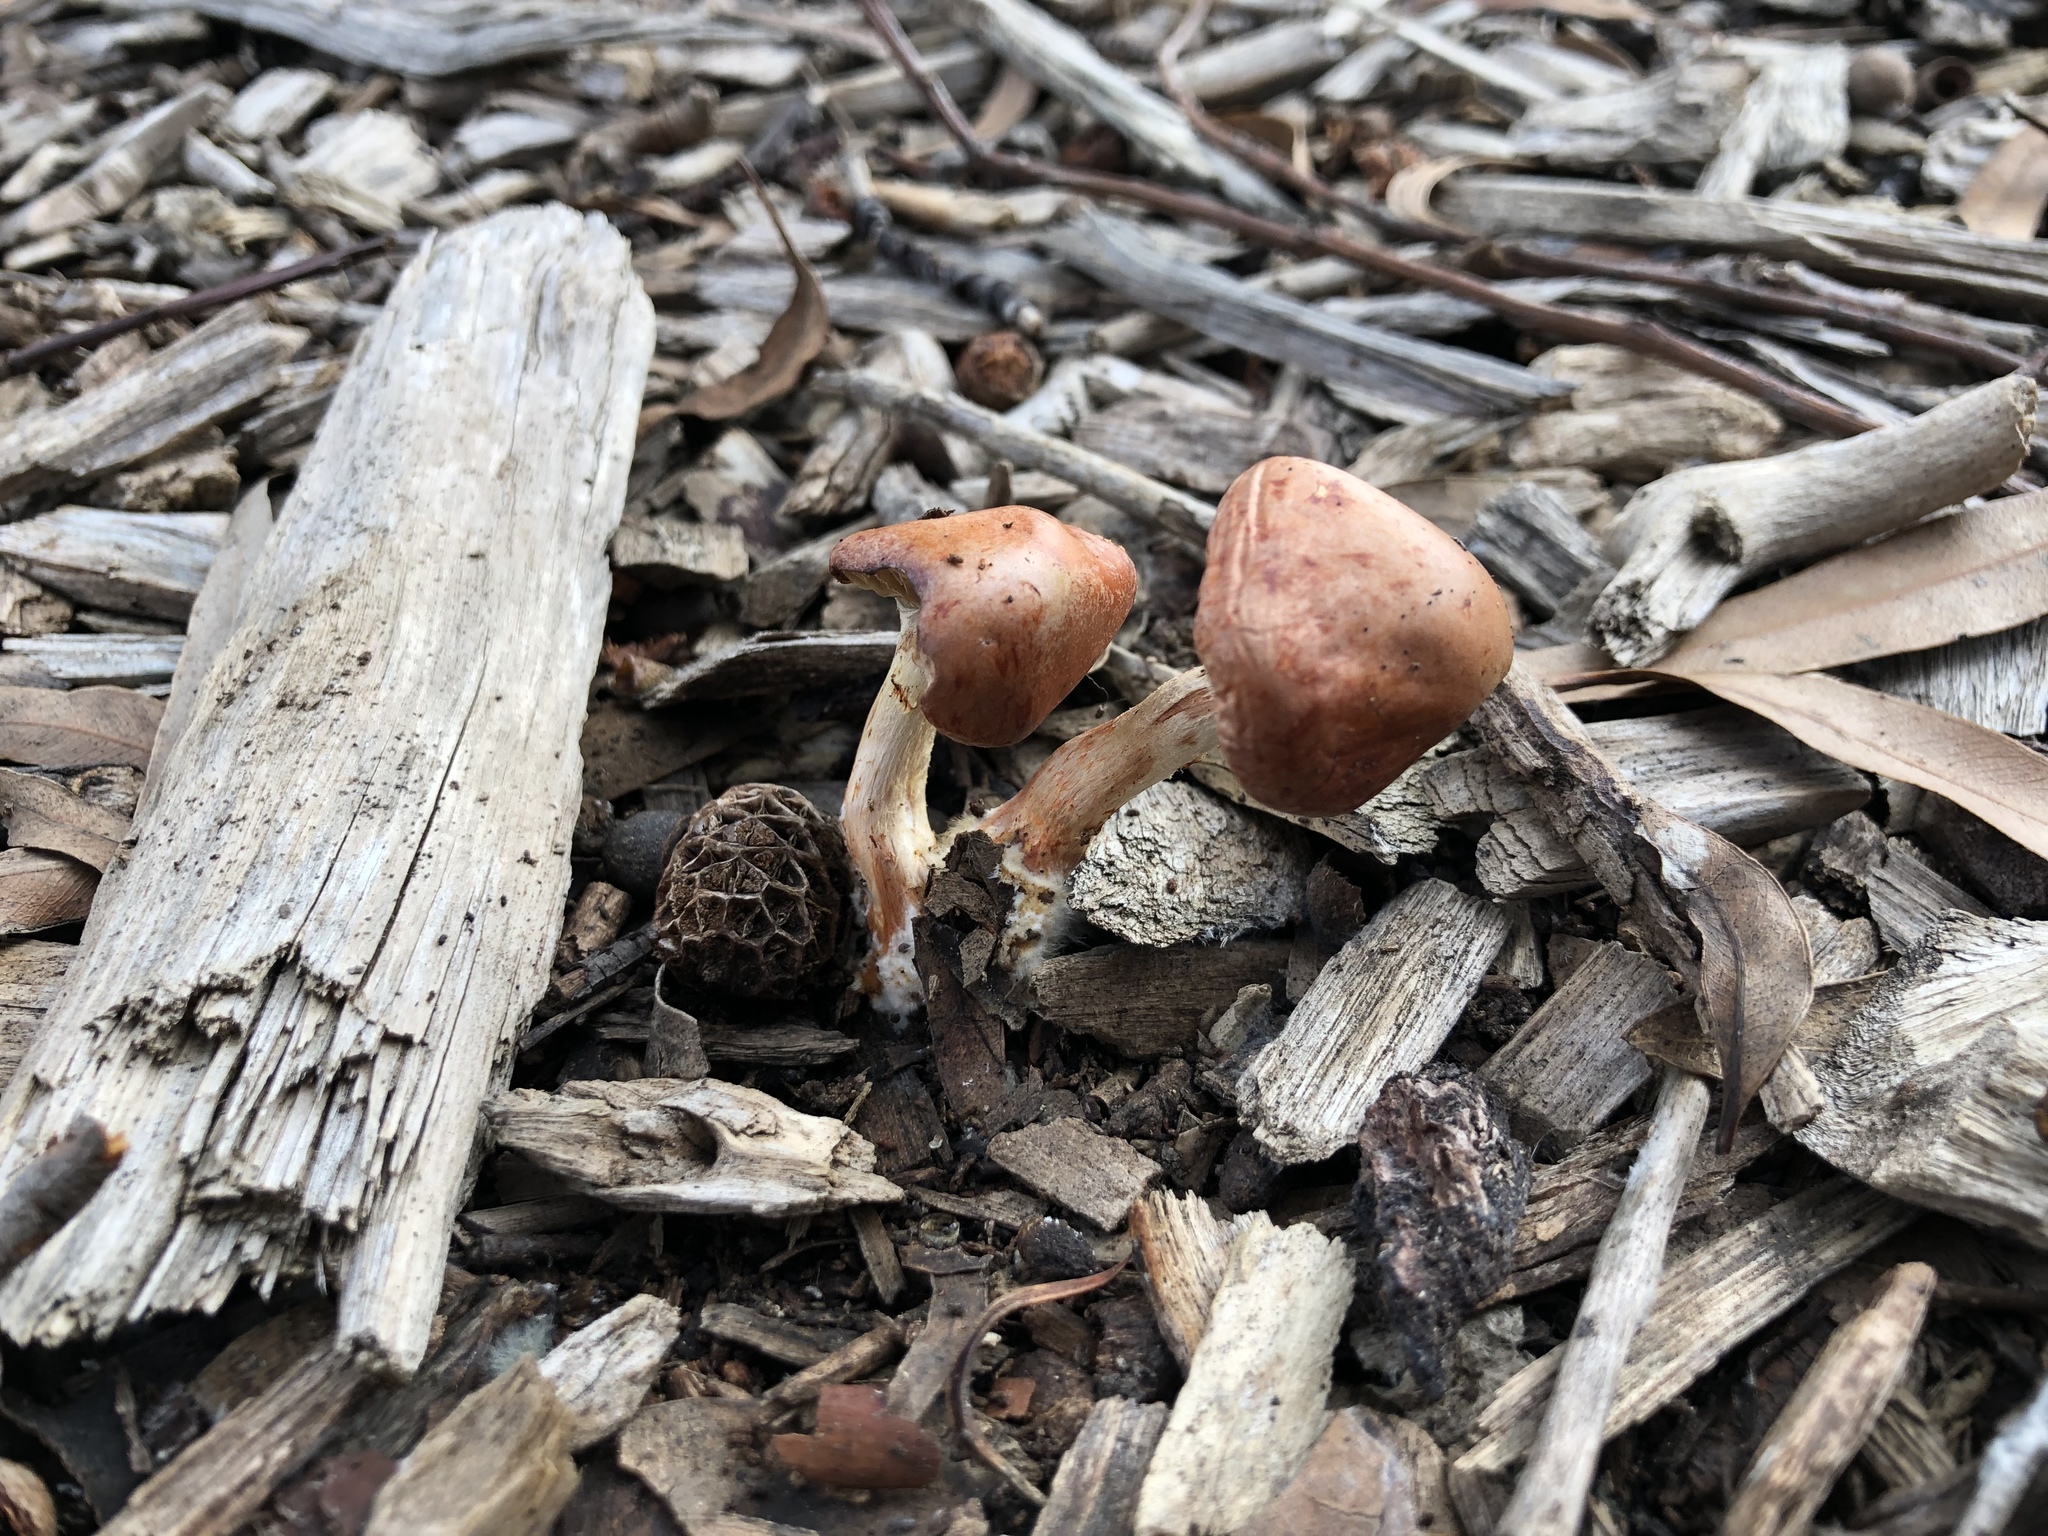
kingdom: Fungi
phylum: Basidiomycota
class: Agaricomycetes
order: Agaricales
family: Strophariaceae
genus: Leratiomyces
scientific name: Leratiomyces ceres
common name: Redlead roundhead
